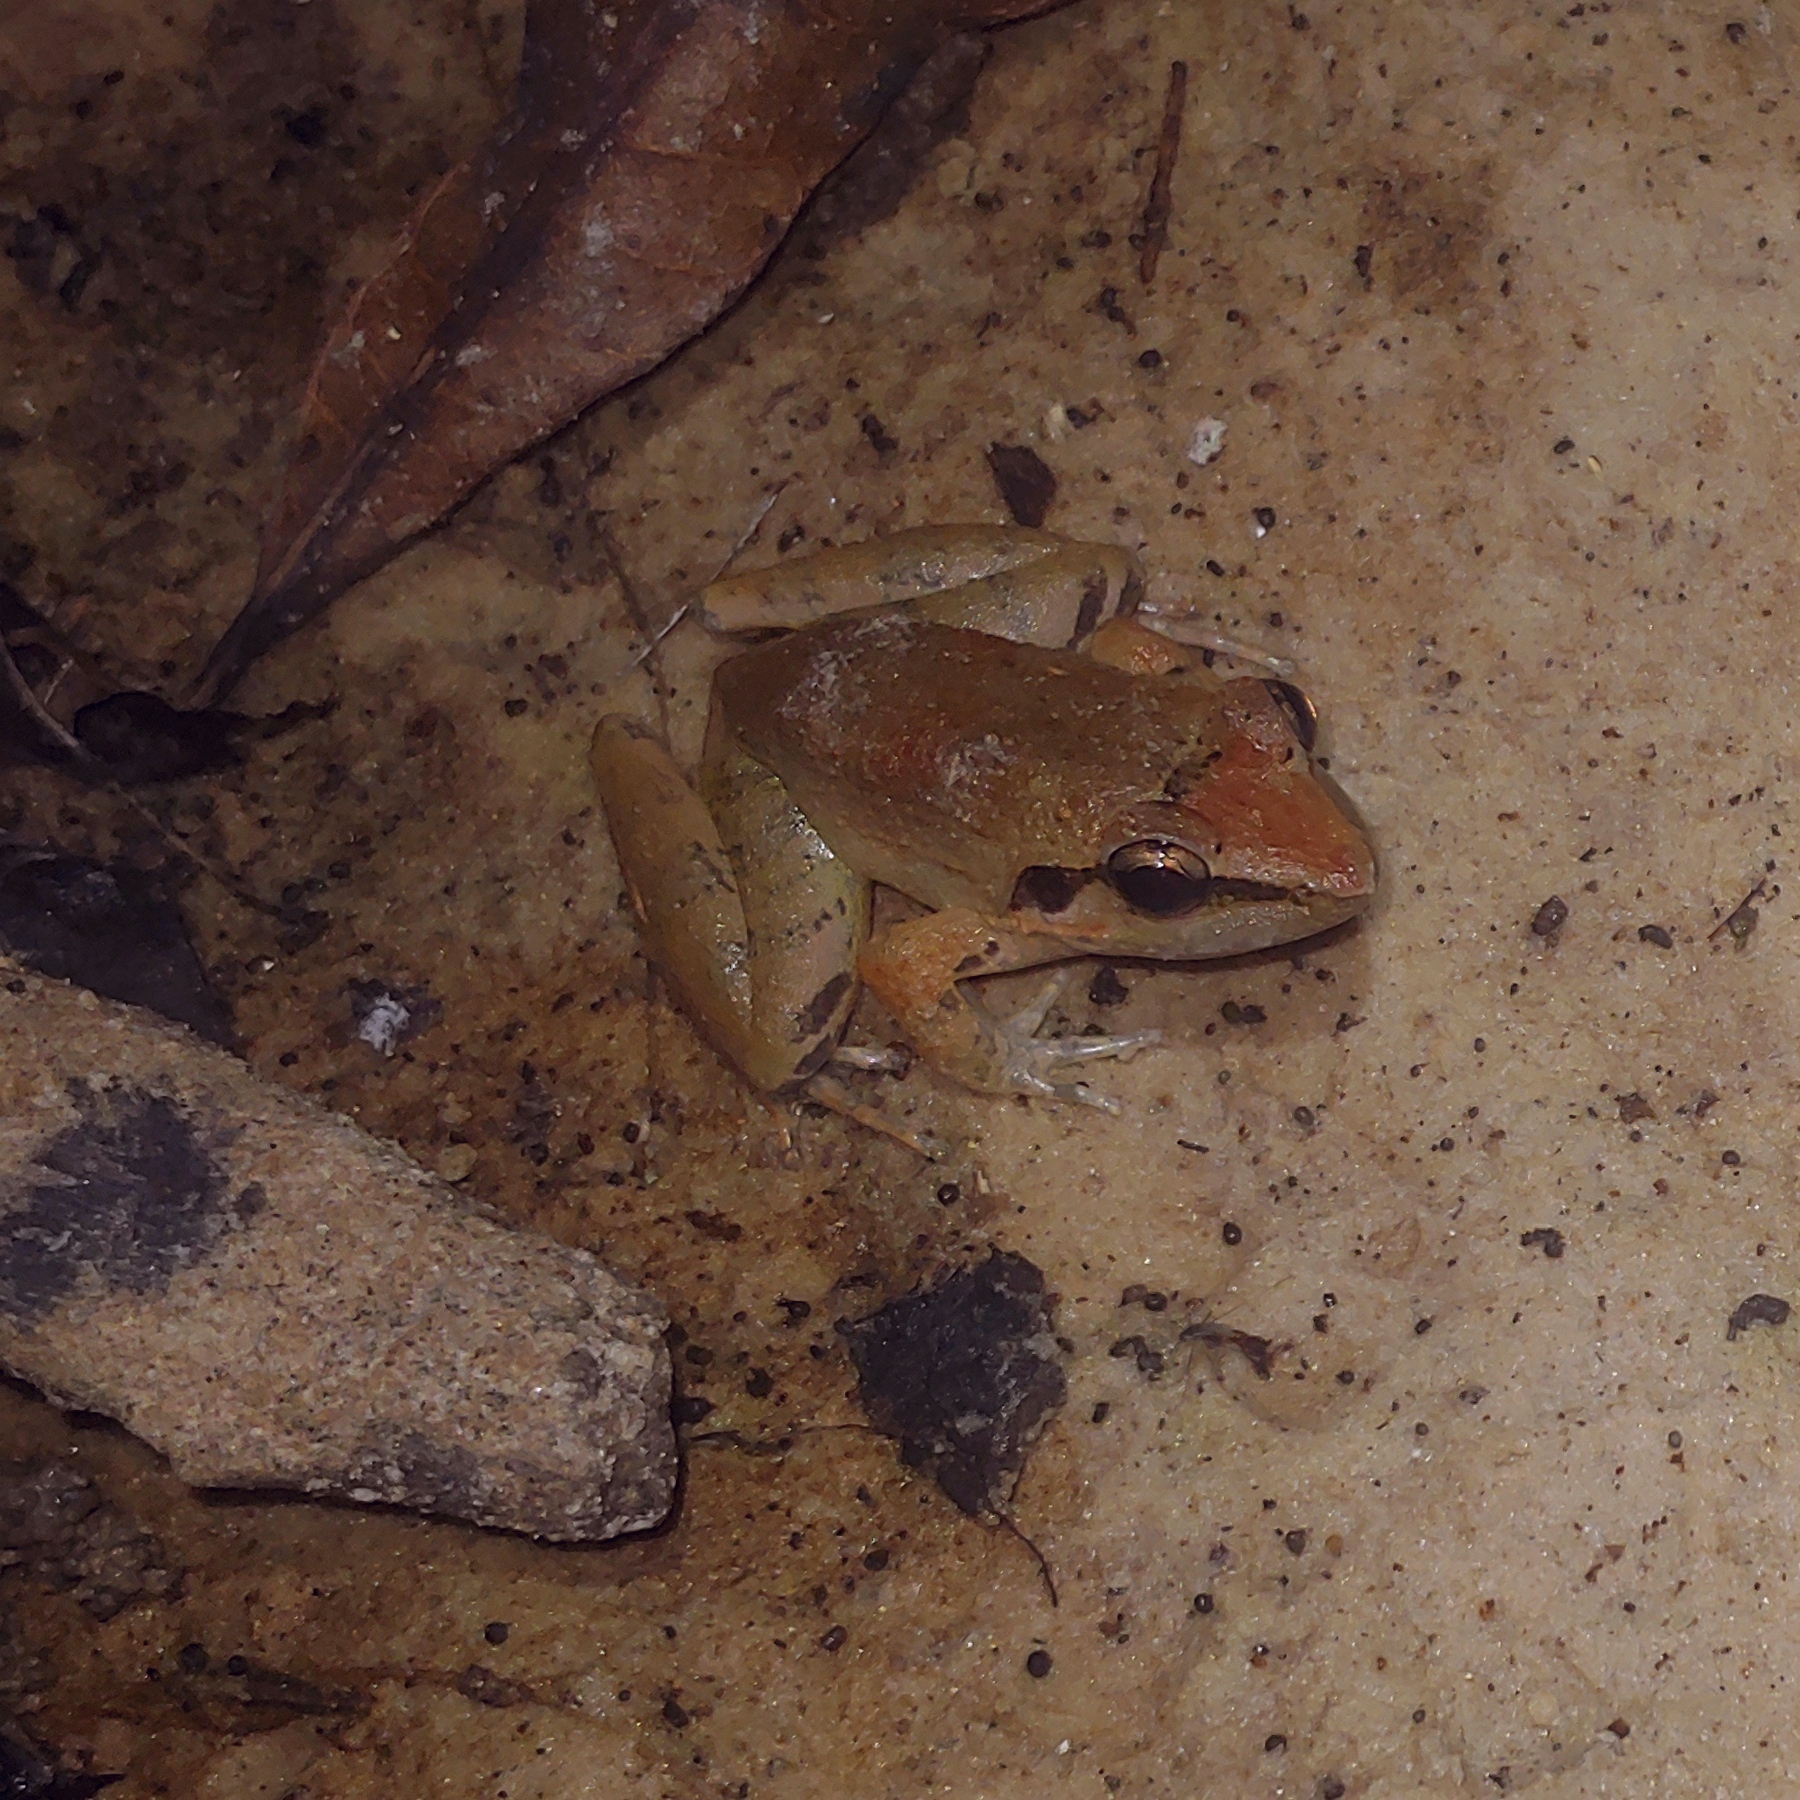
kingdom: Animalia
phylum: Chordata
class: Amphibia
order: Anura
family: Dicroglossidae
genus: Limnonectes
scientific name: Limnonectes palavanensis
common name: Smooth guardian frog
